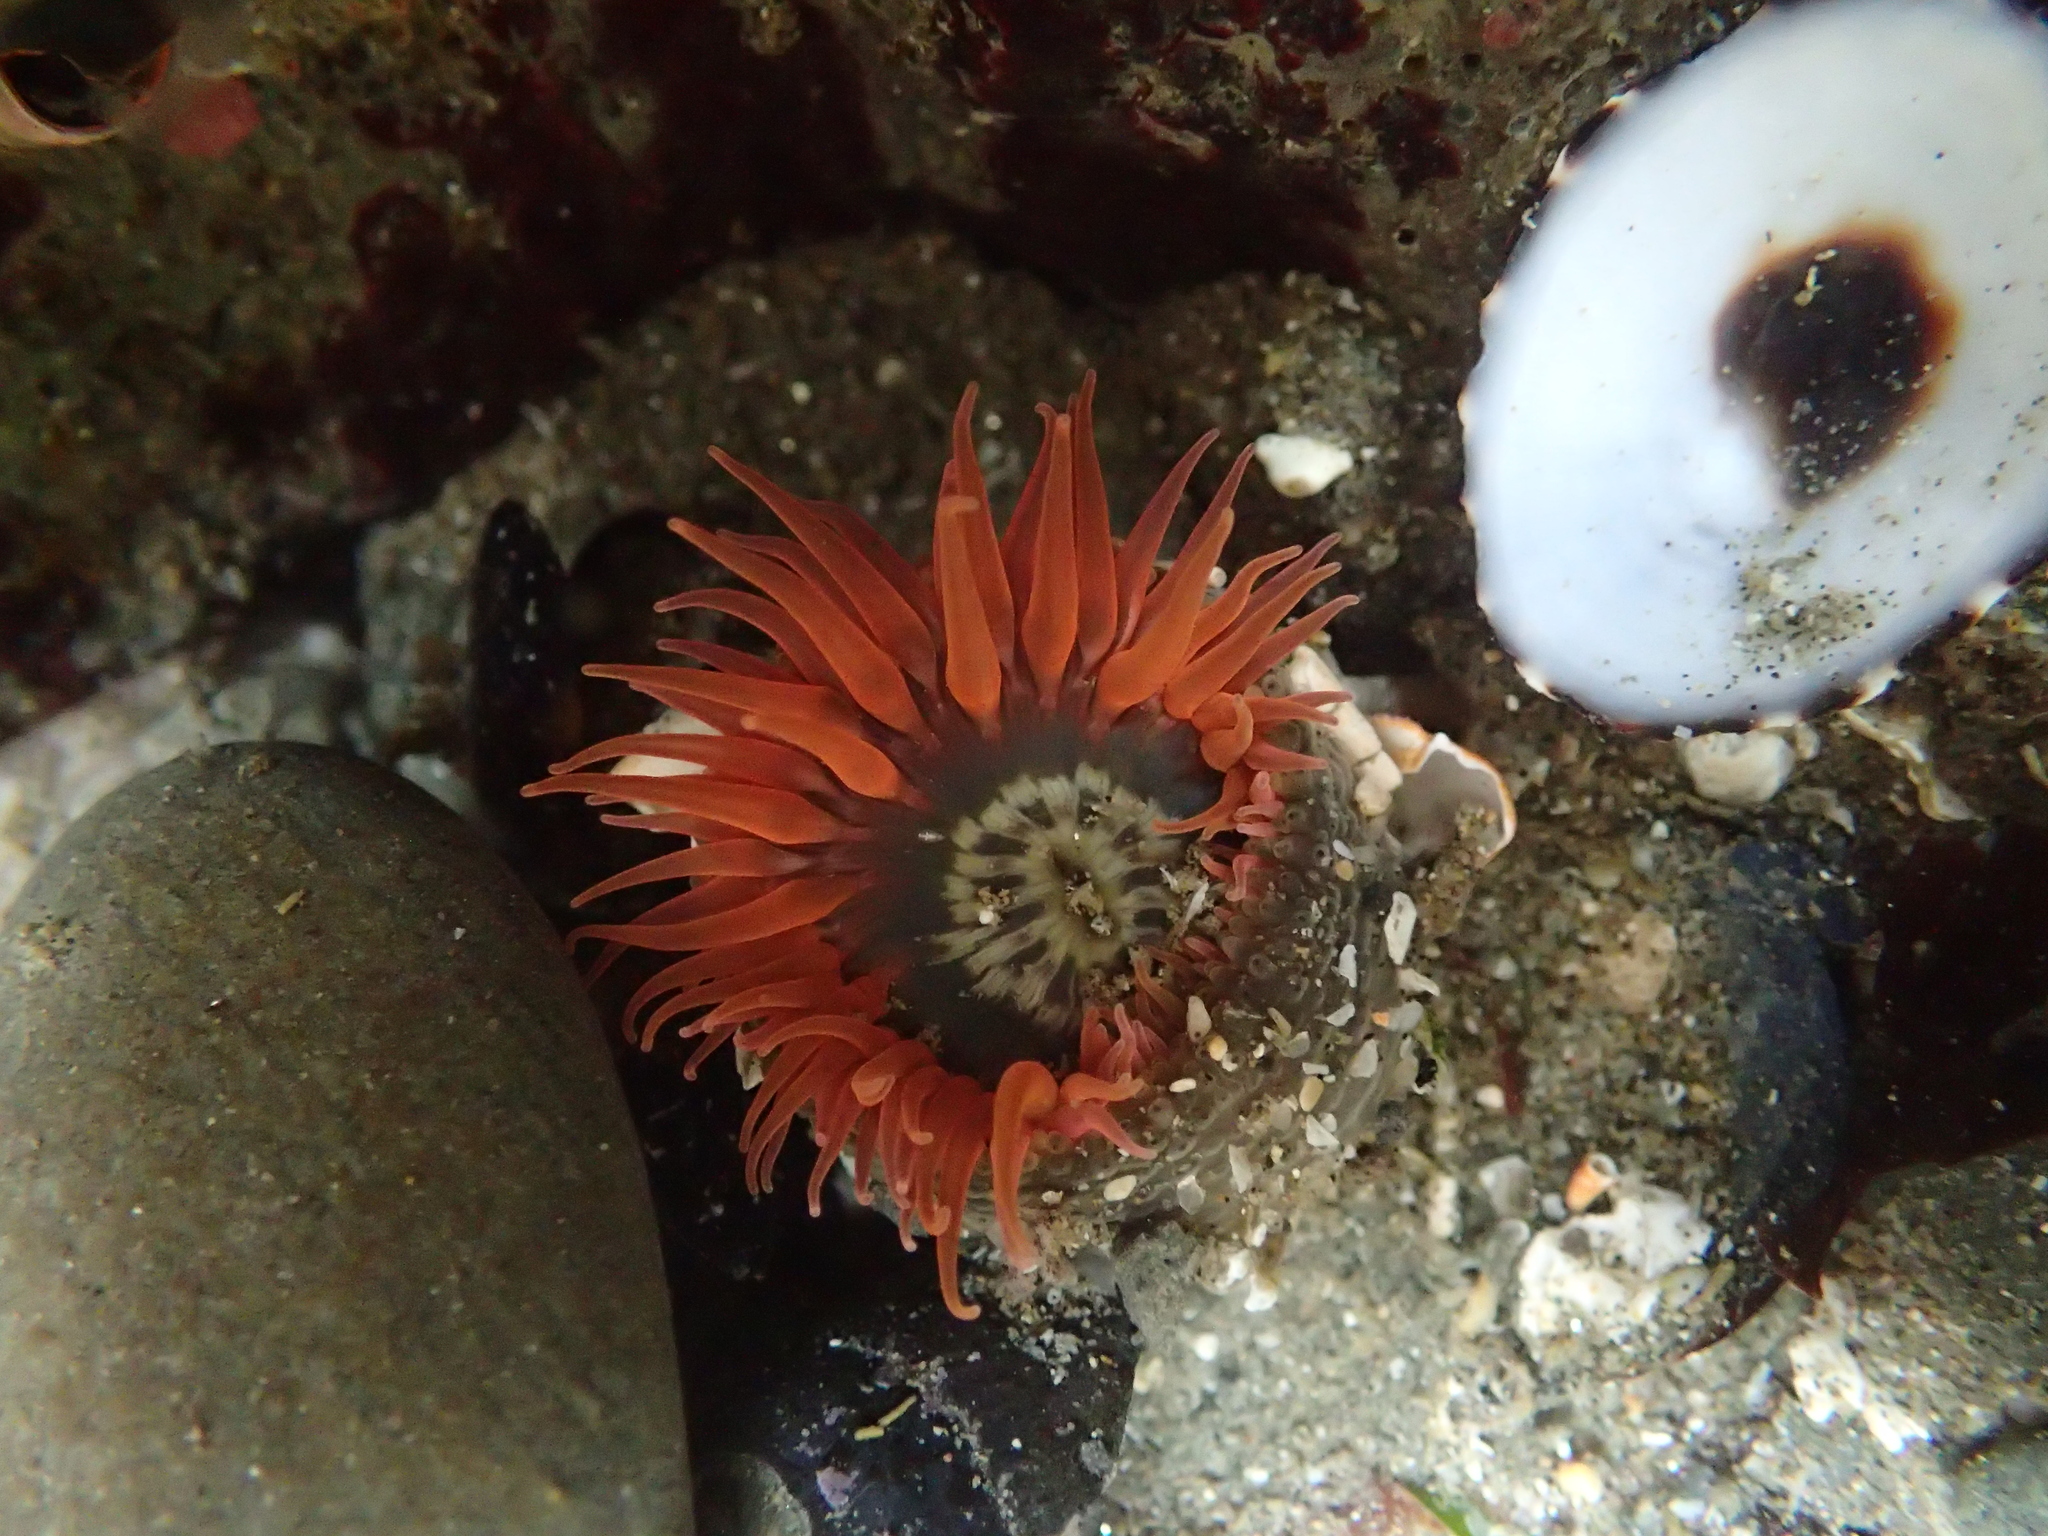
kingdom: Animalia
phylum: Cnidaria
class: Anthozoa
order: Actiniaria
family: Actiniidae
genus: Anthopleura
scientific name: Anthopleura artemisia
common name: Buried sea anemone
